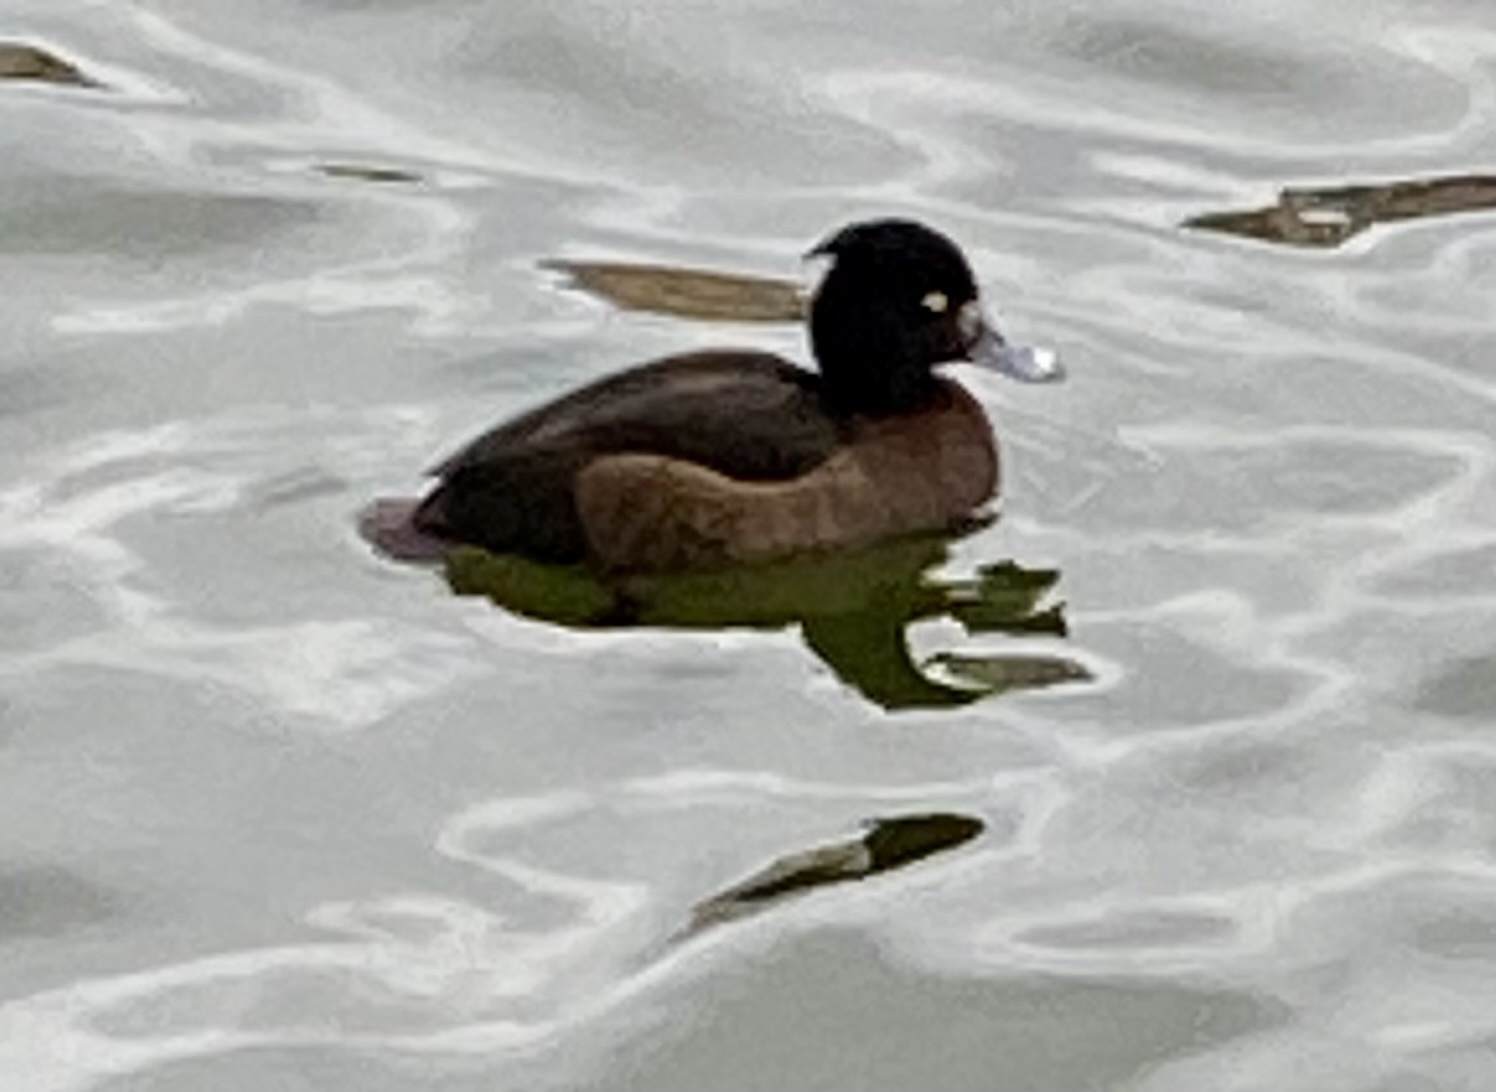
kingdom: Animalia
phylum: Chordata
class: Aves
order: Anseriformes
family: Anatidae
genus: Aythya
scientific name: Aythya fuligula
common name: Tufted duck
